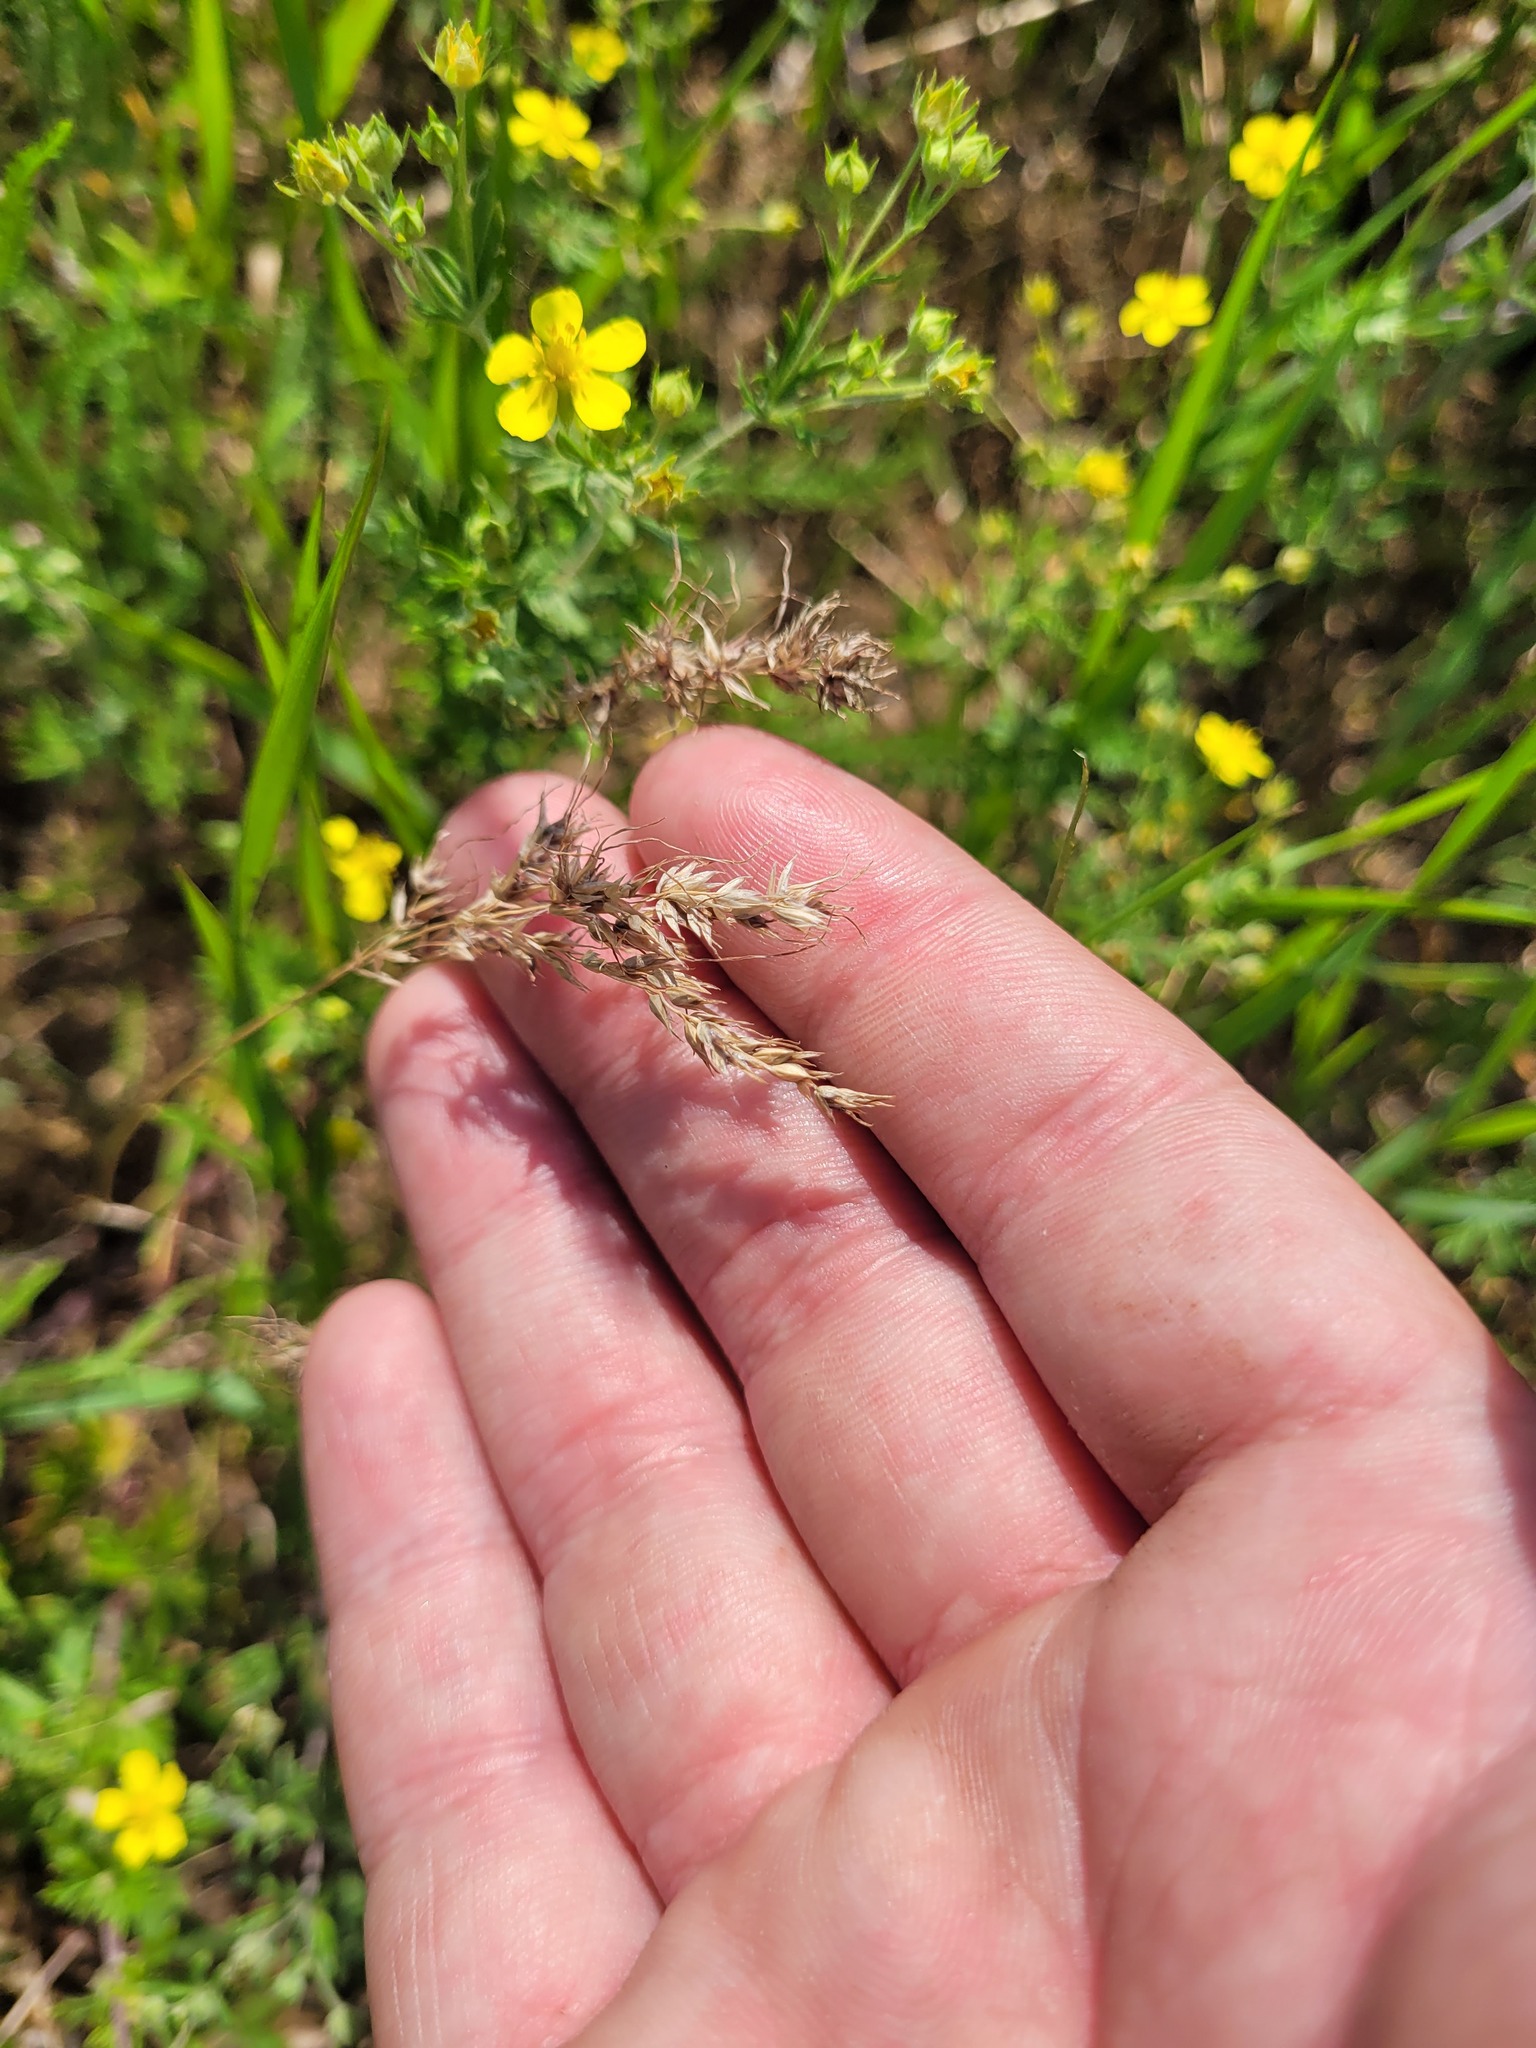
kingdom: Plantae
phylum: Tracheophyta
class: Liliopsida
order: Poales
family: Poaceae
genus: Poa
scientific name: Poa bulbosa
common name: Bulbous bluegrass
